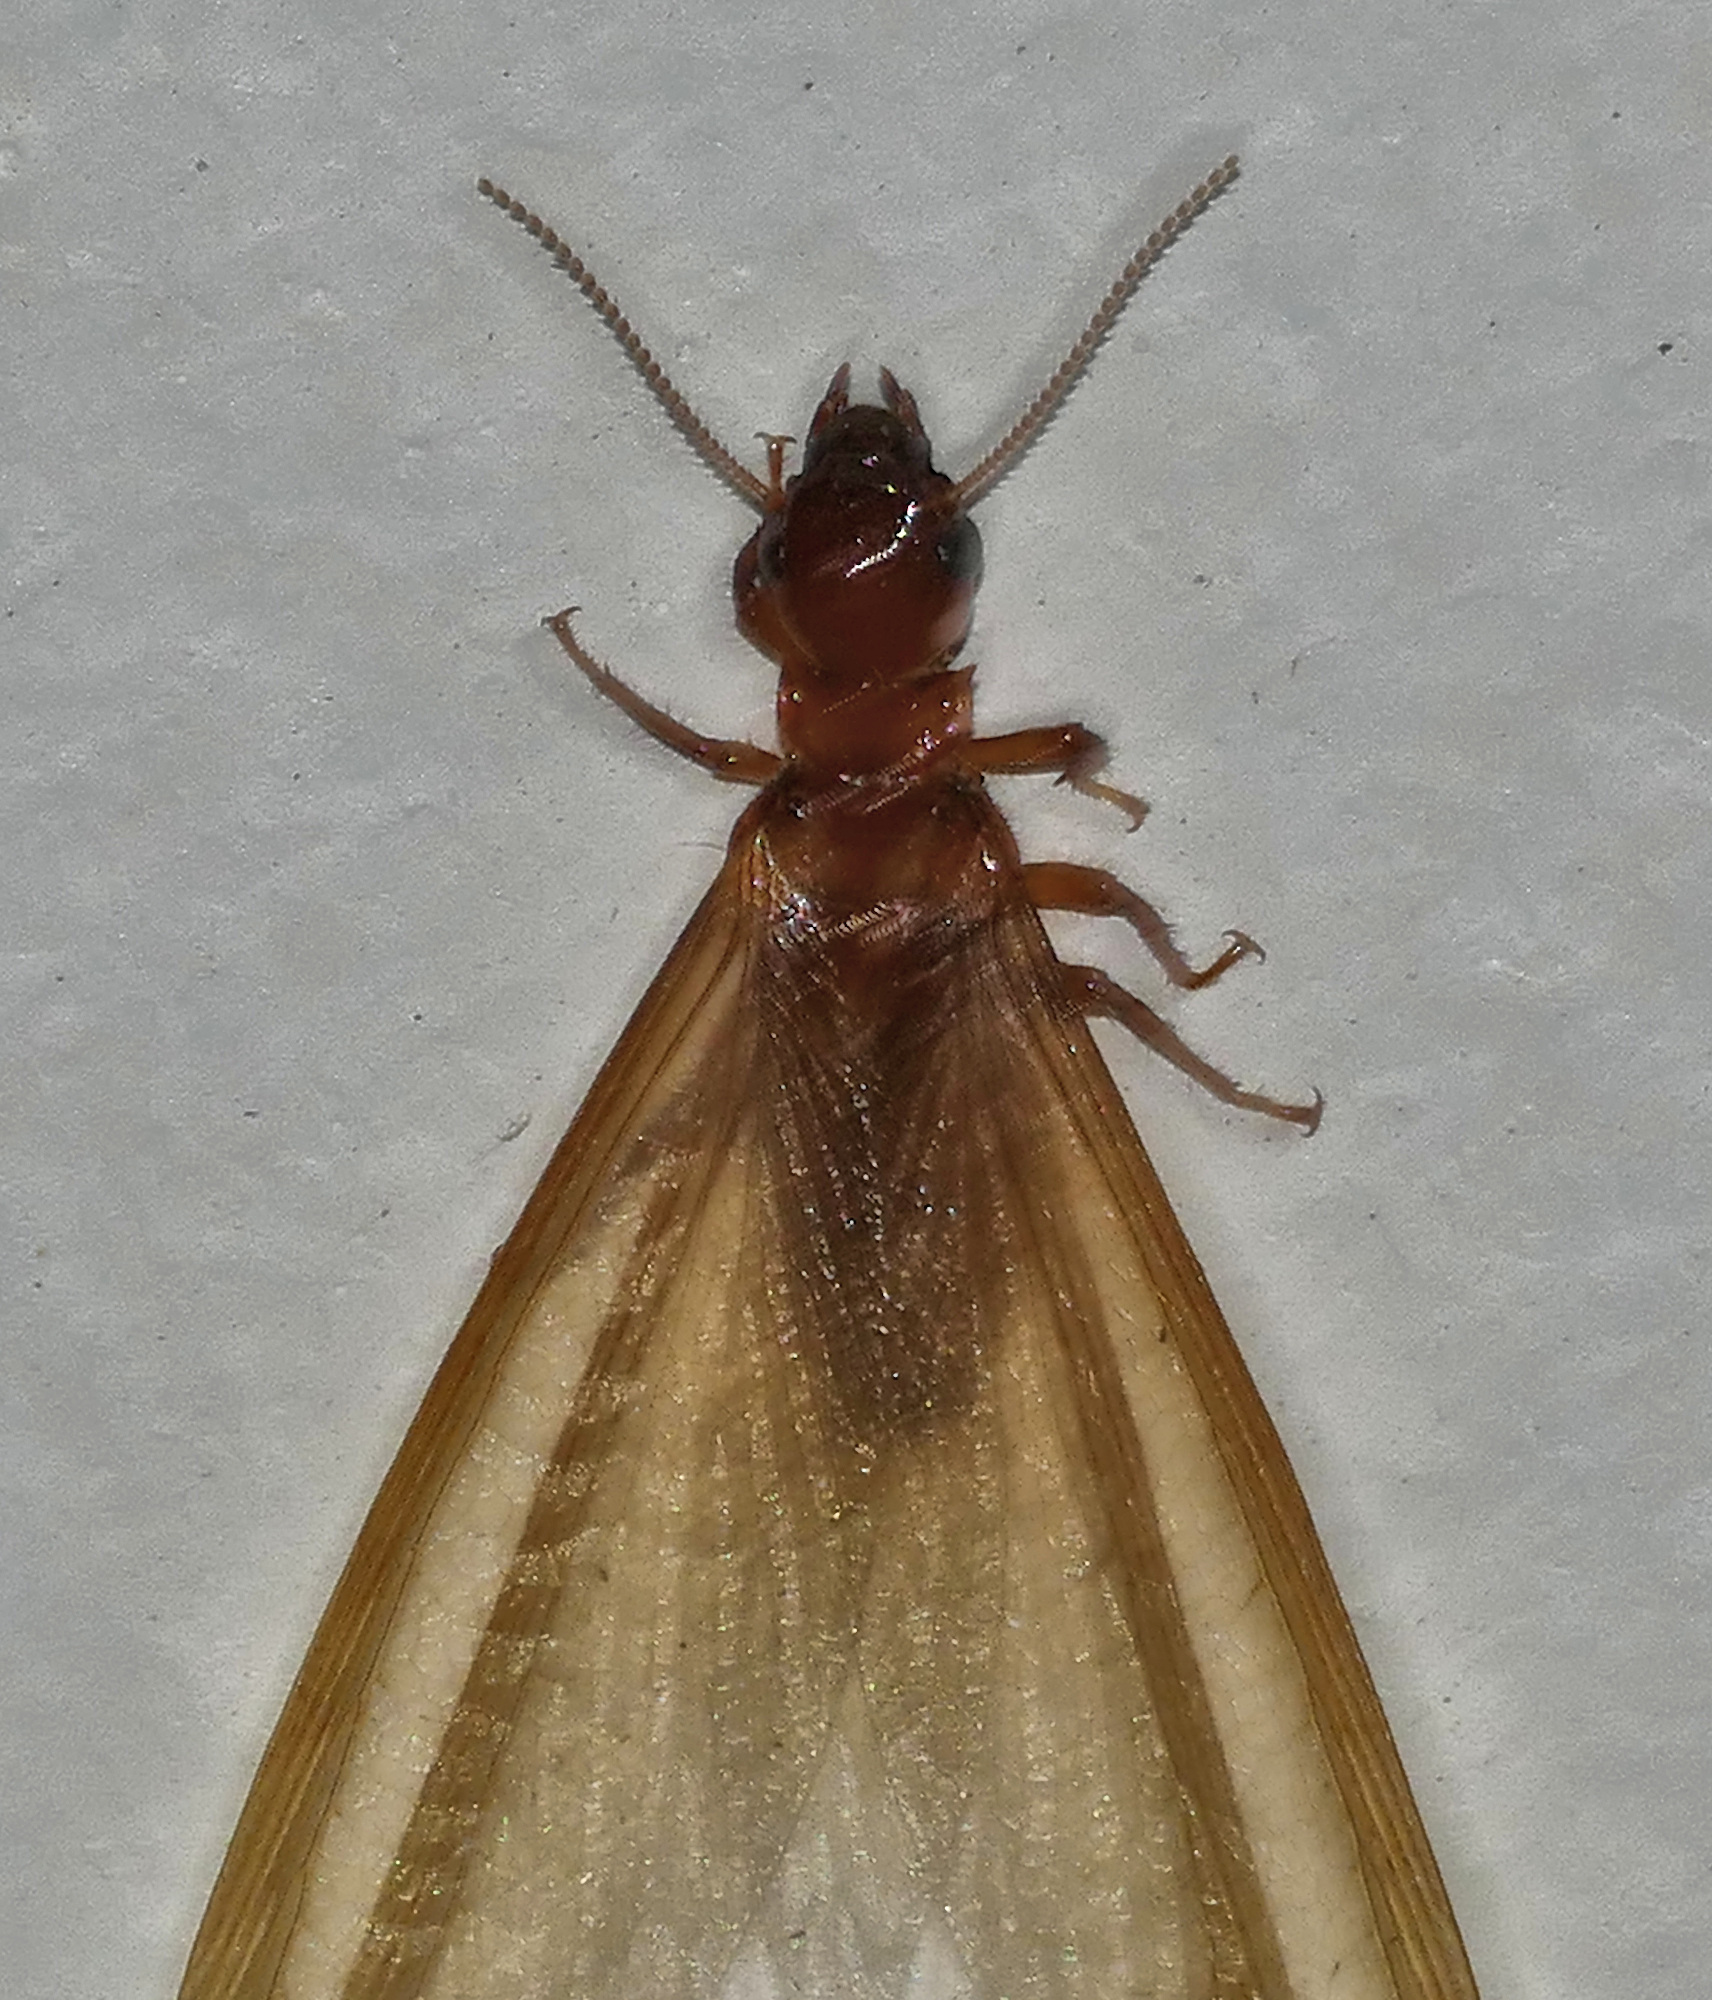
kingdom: Animalia
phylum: Arthropoda
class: Insecta
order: Blattodea
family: Archotermopsidae
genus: Zootermopsis
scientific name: Zootermopsis laticeps
